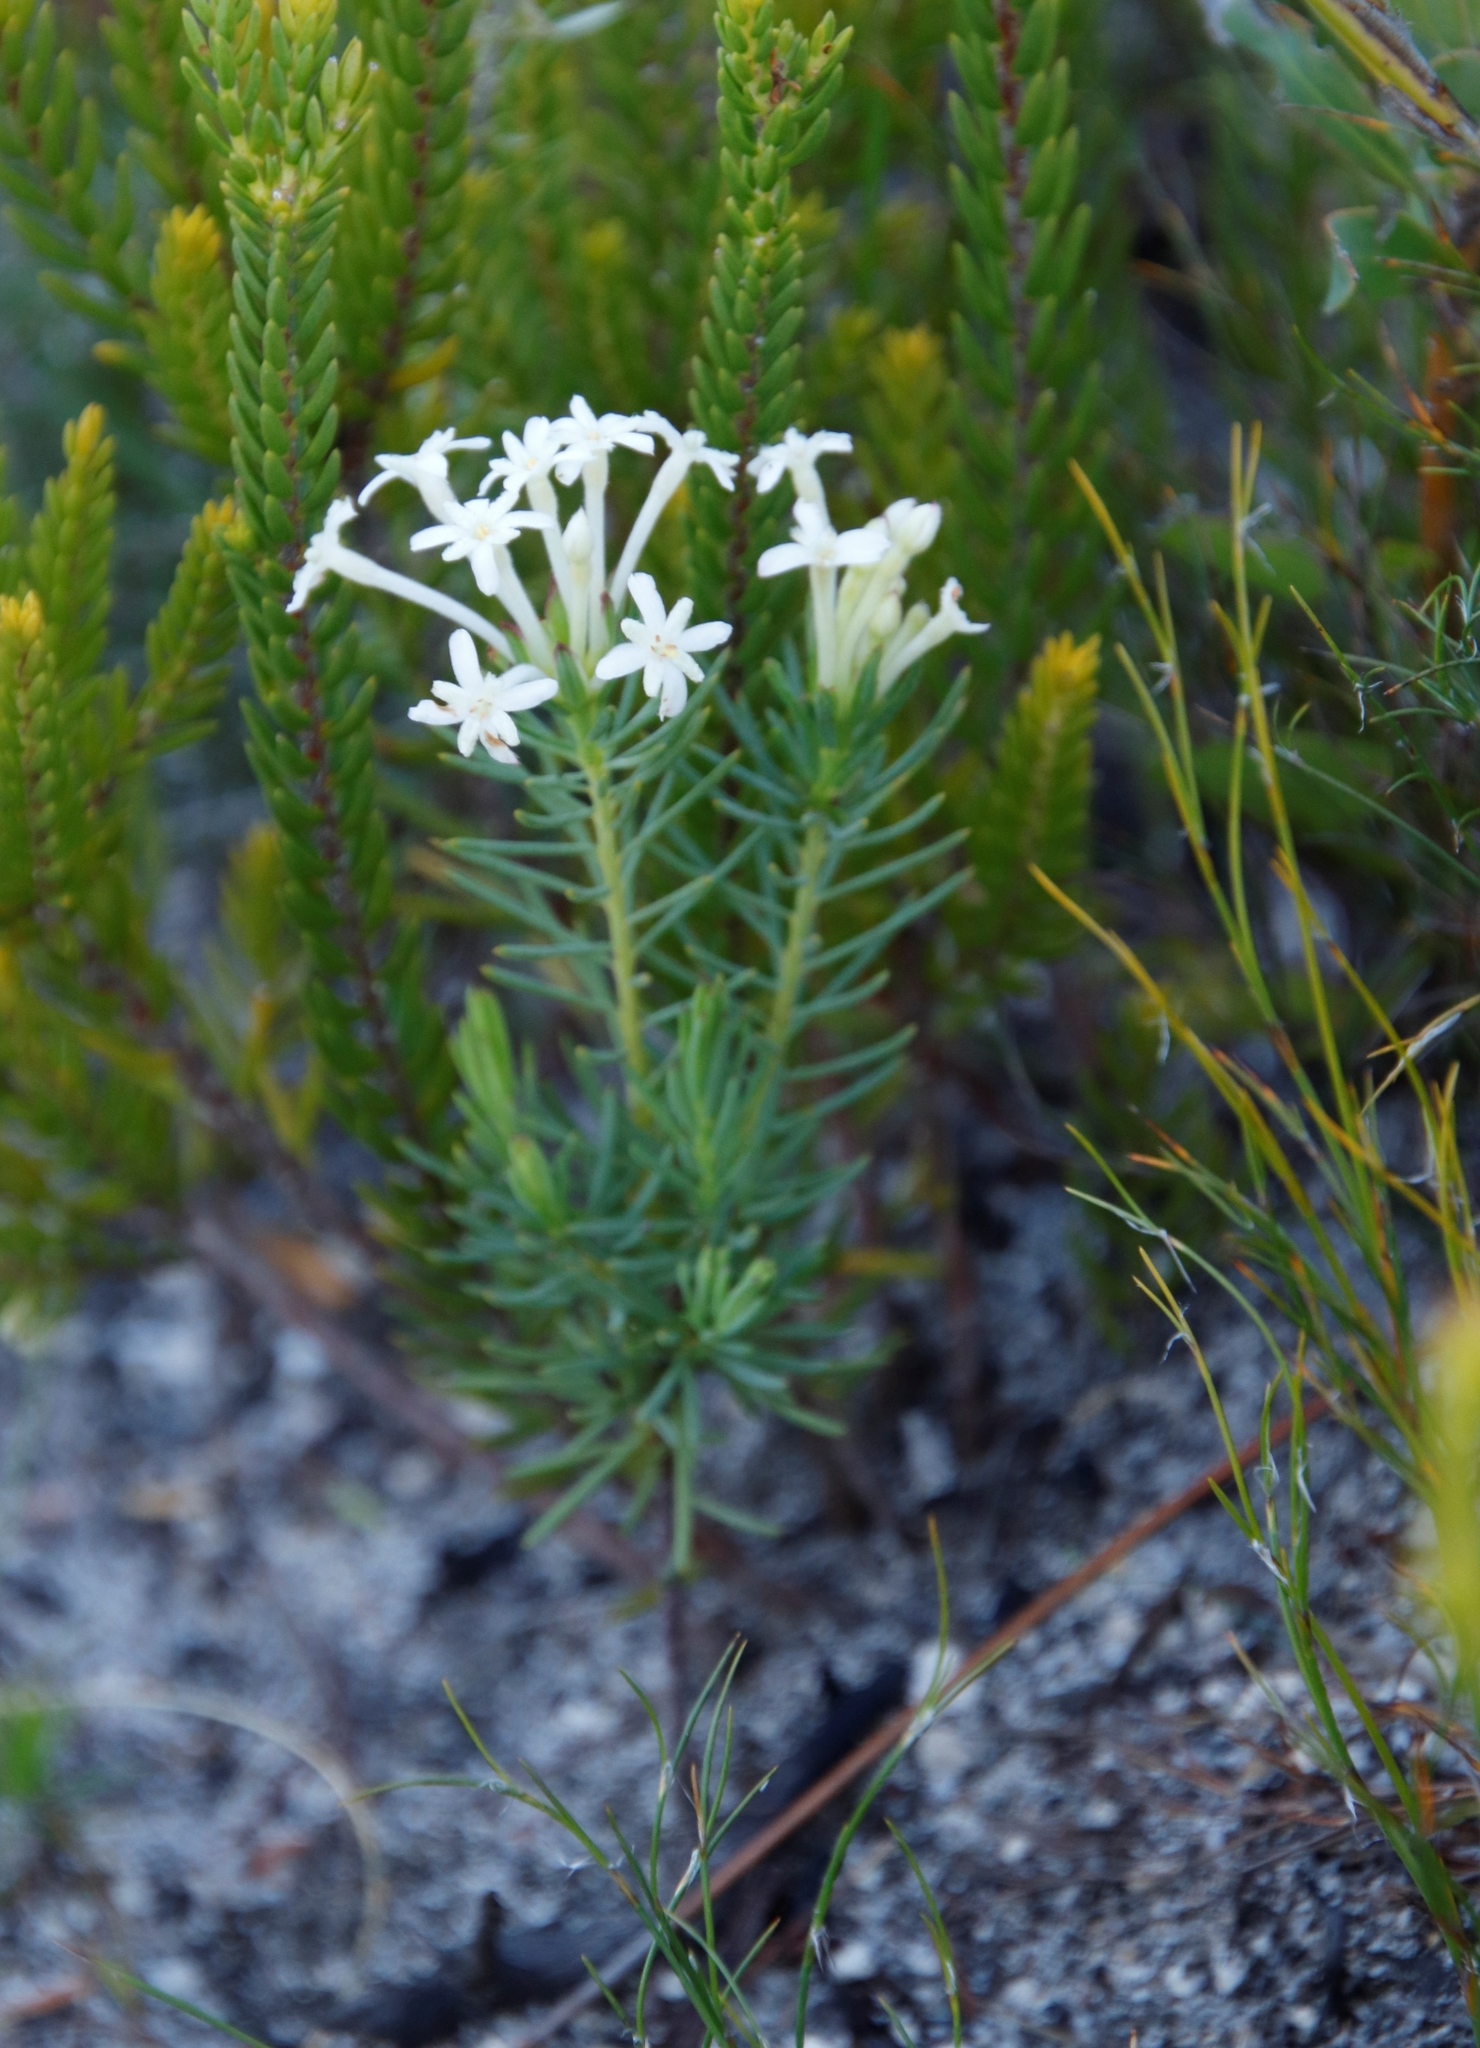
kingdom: Plantae
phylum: Tracheophyta
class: Magnoliopsida
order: Malvales
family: Thymelaeaceae
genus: Gnidia
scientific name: Gnidia pinifolia
